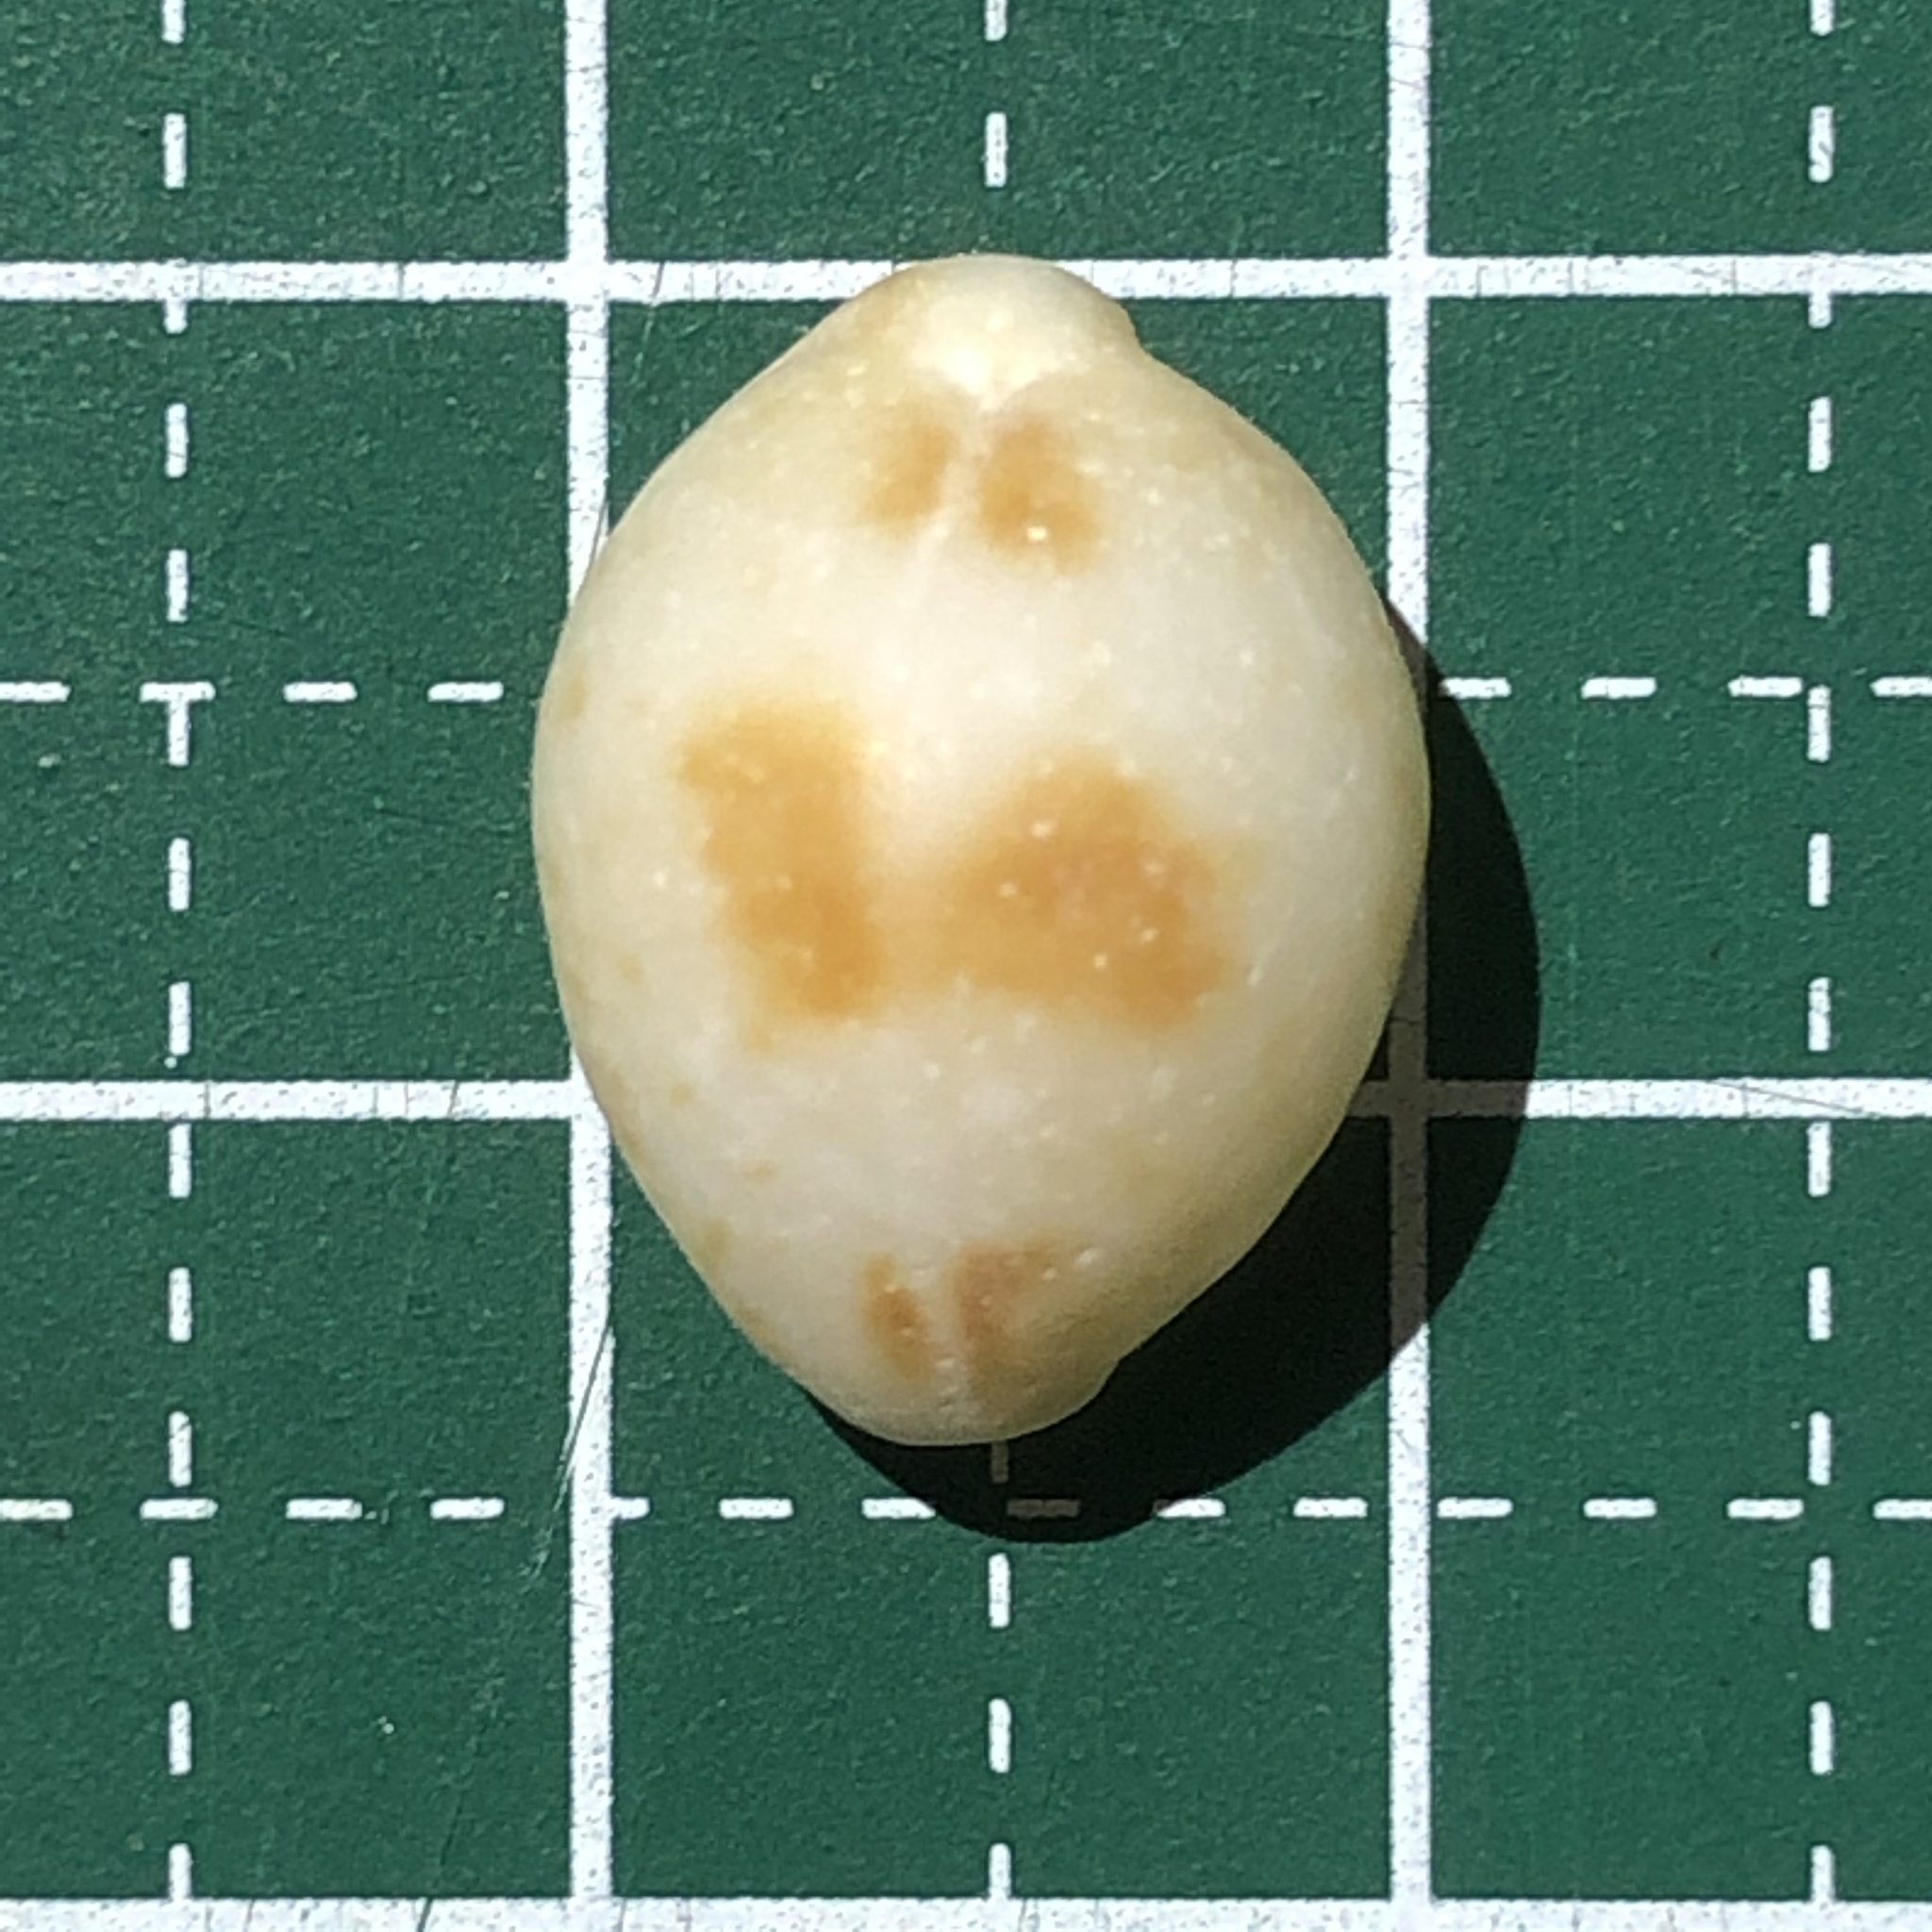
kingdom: Animalia
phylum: Mollusca
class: Gastropoda
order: Littorinimorpha
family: Cypraeidae
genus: Pustularia
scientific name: Pustularia bistrinotata
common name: Treblespotted cowrie
